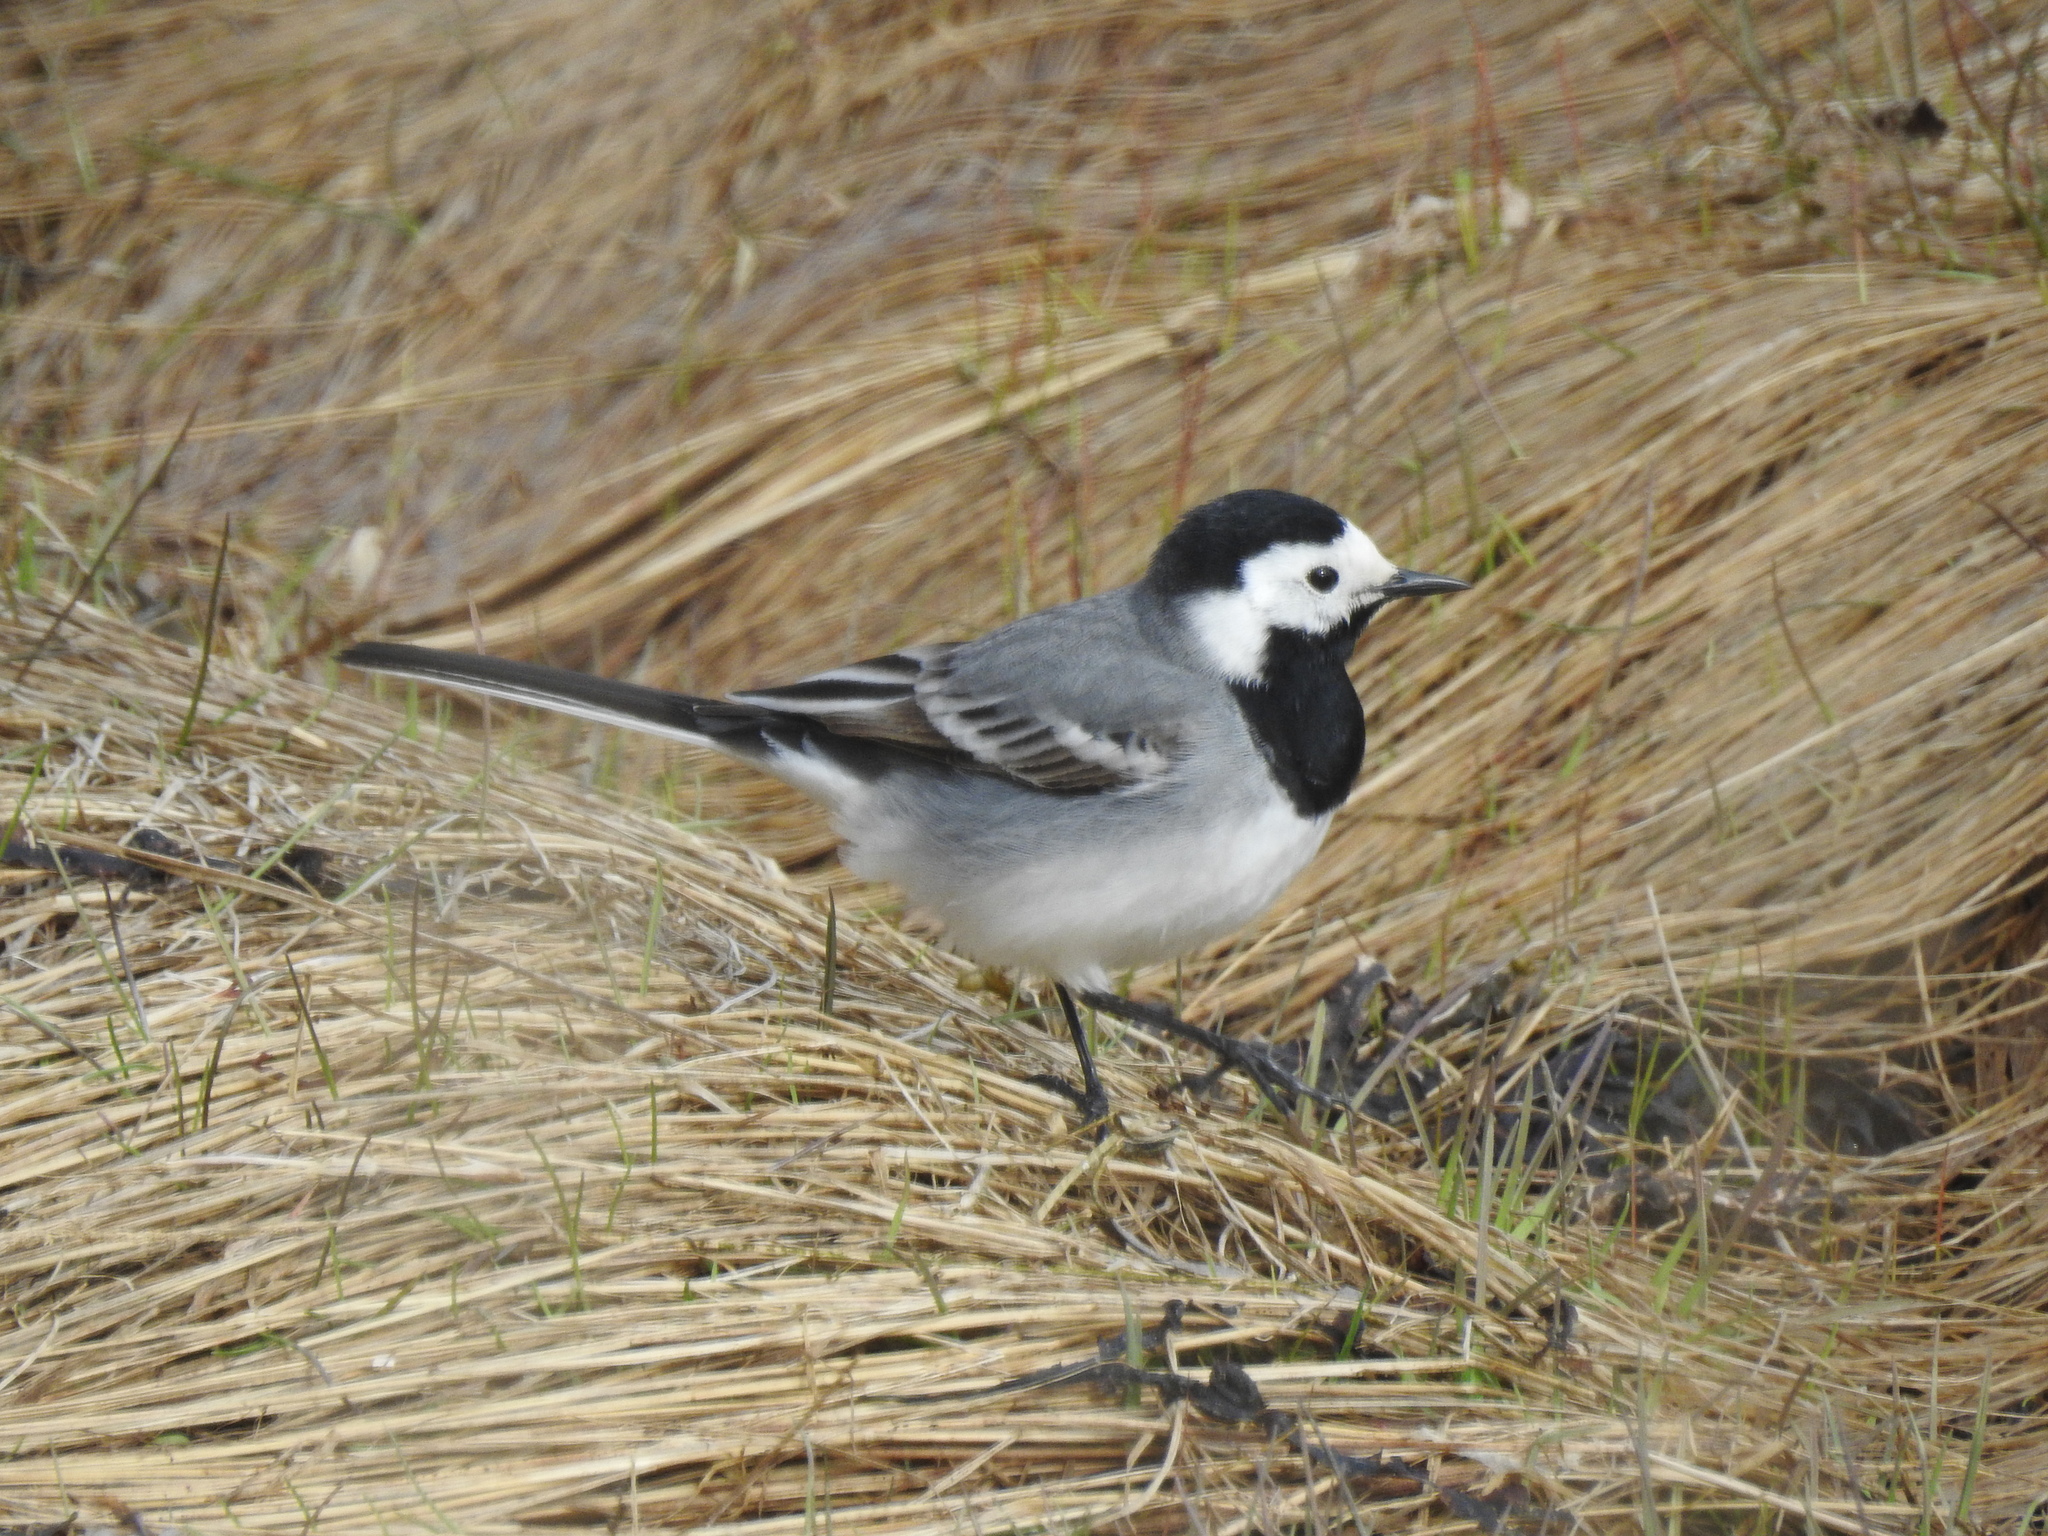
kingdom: Animalia
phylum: Chordata
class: Aves
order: Passeriformes
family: Motacillidae
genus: Motacilla
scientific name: Motacilla alba
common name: White wagtail
